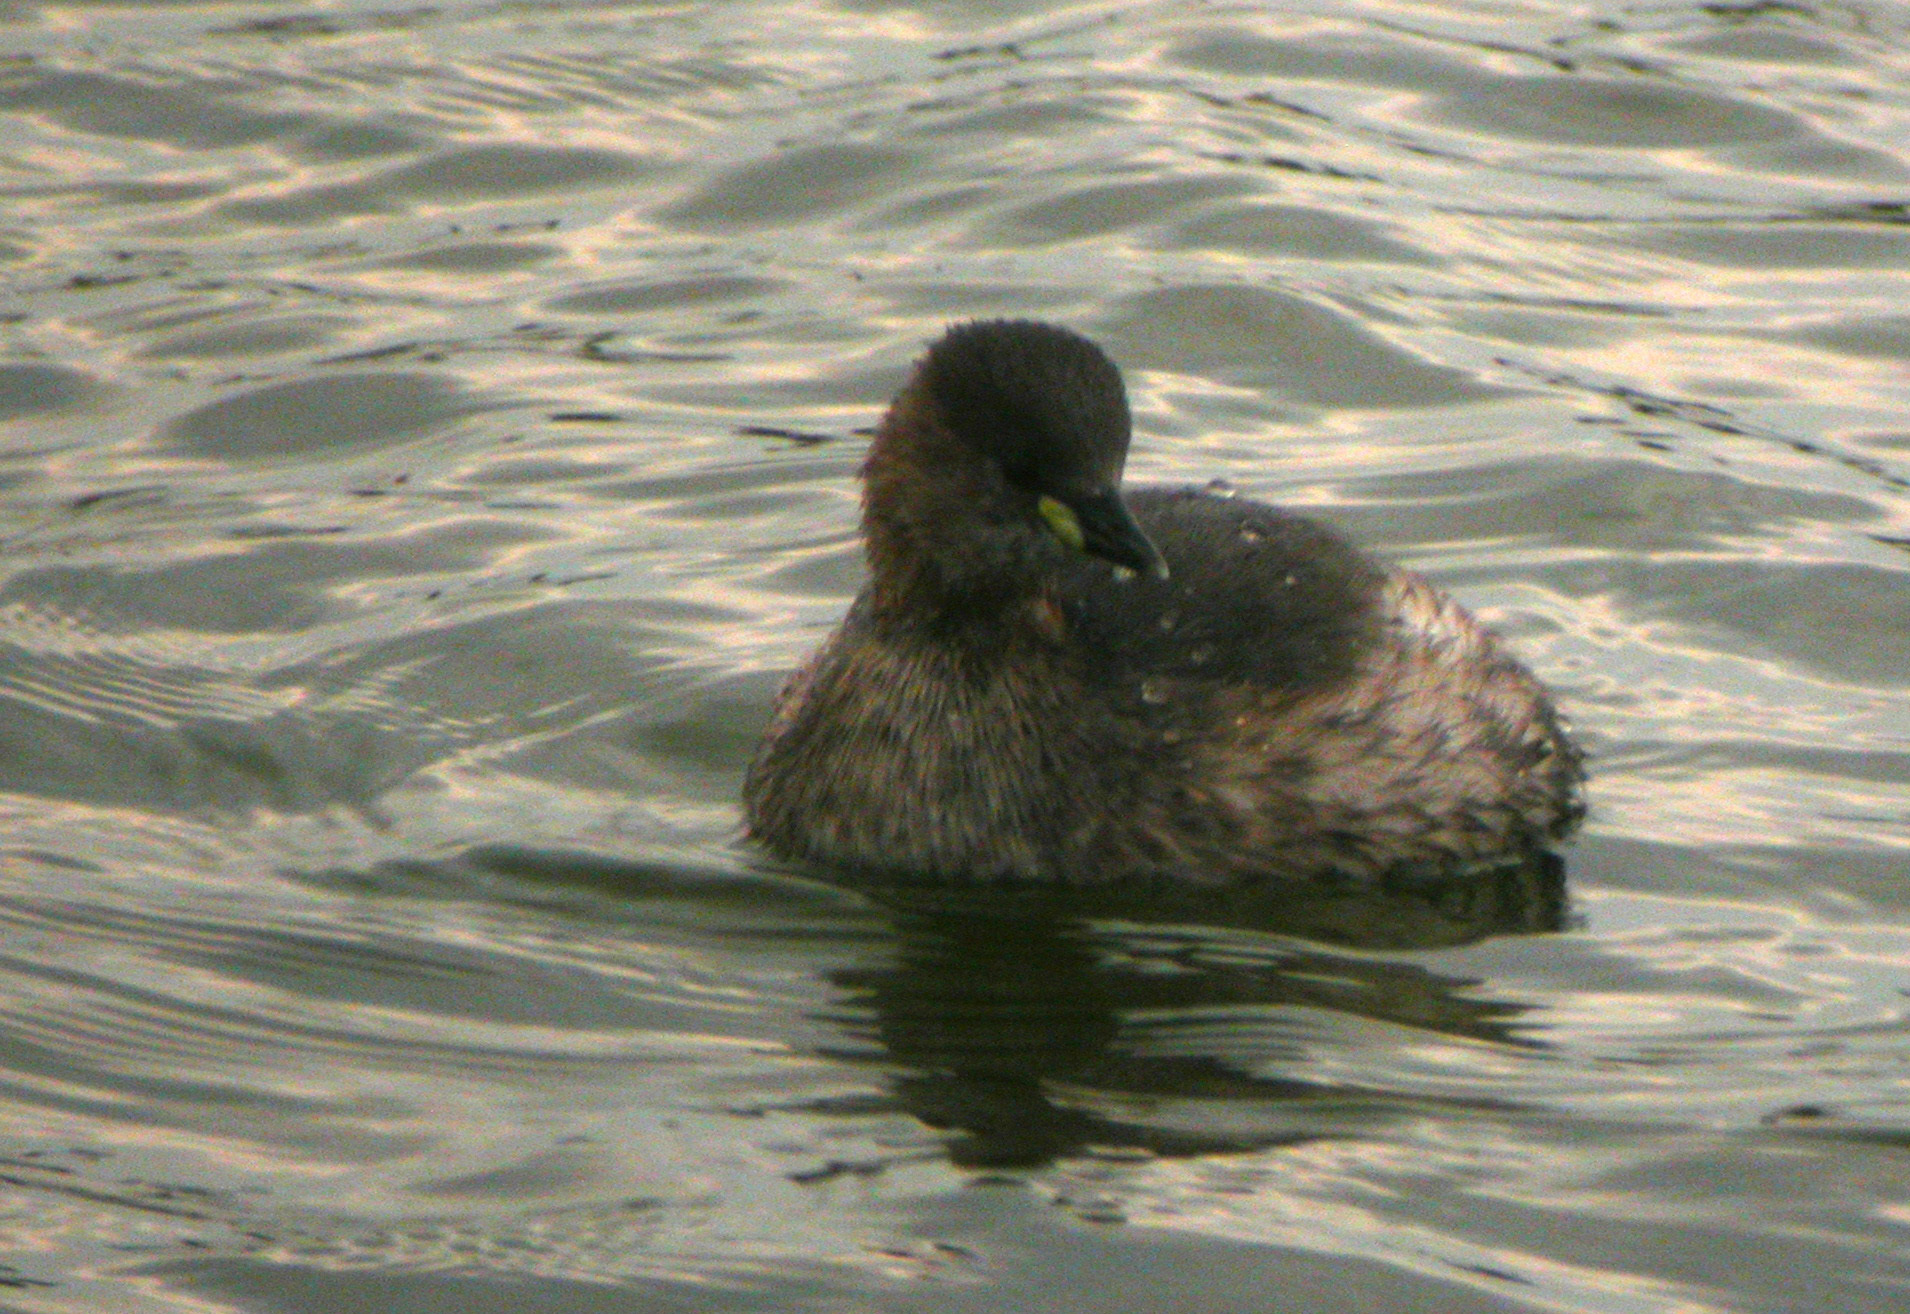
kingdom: Animalia
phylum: Chordata
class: Aves
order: Podicipediformes
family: Podicipedidae
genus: Tachybaptus
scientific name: Tachybaptus ruficollis
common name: Little grebe
